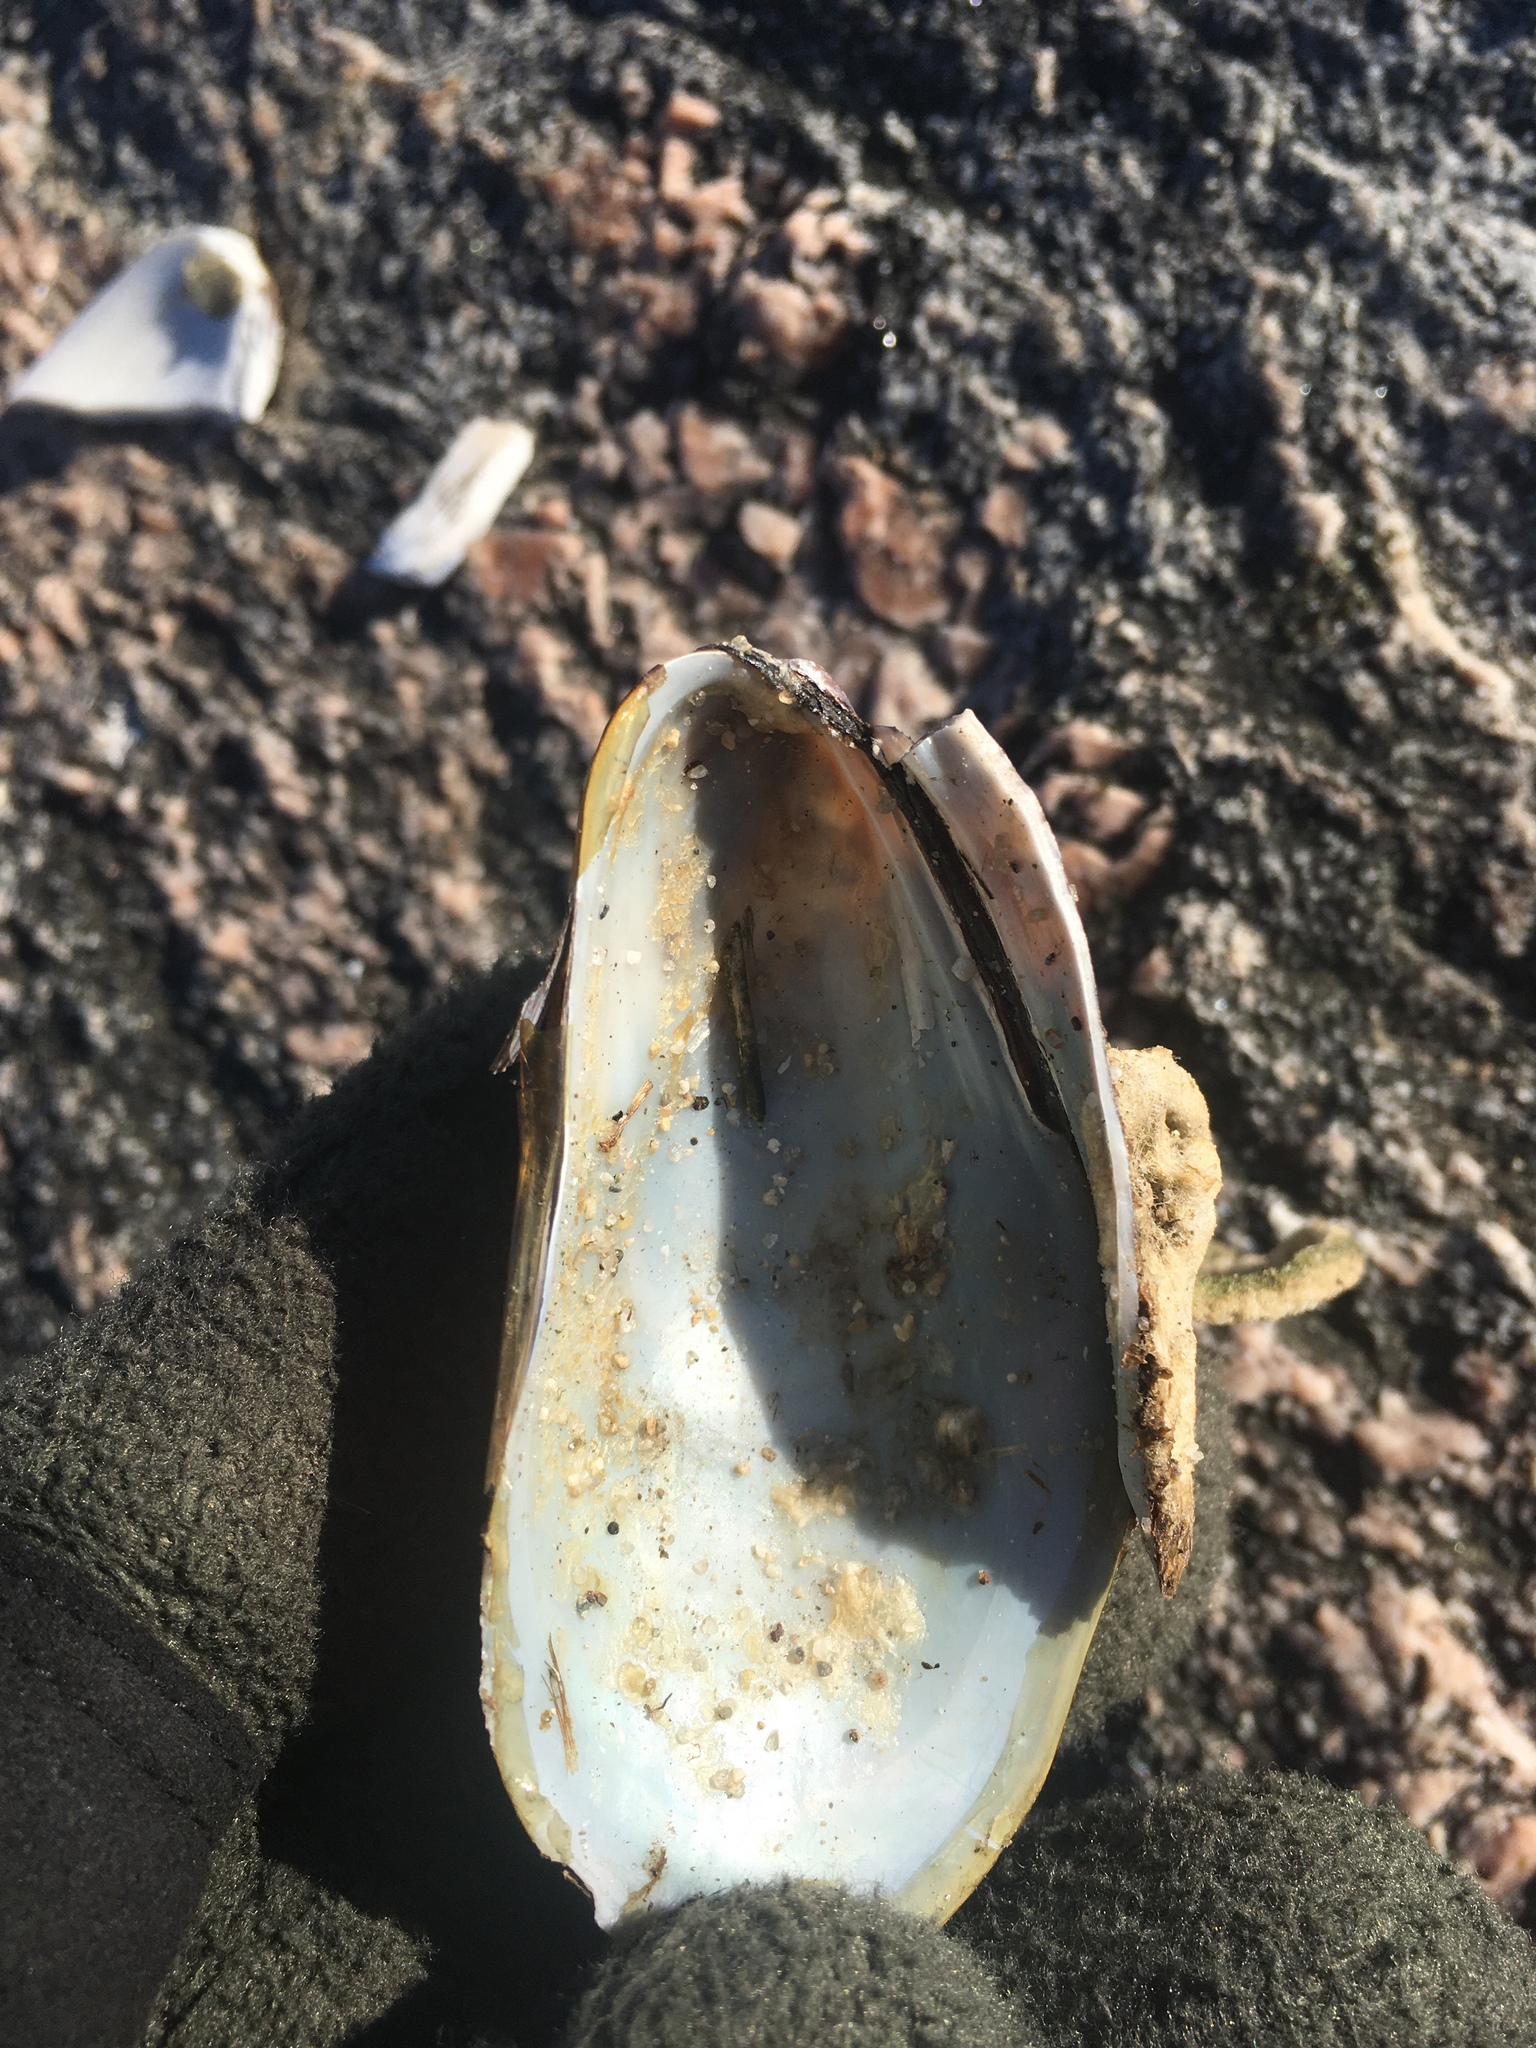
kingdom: Animalia
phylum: Mollusca
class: Bivalvia
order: Mytilida
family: Mytilidae
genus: Modiolus
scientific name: Modiolus modiolus
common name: Horse-mussel
